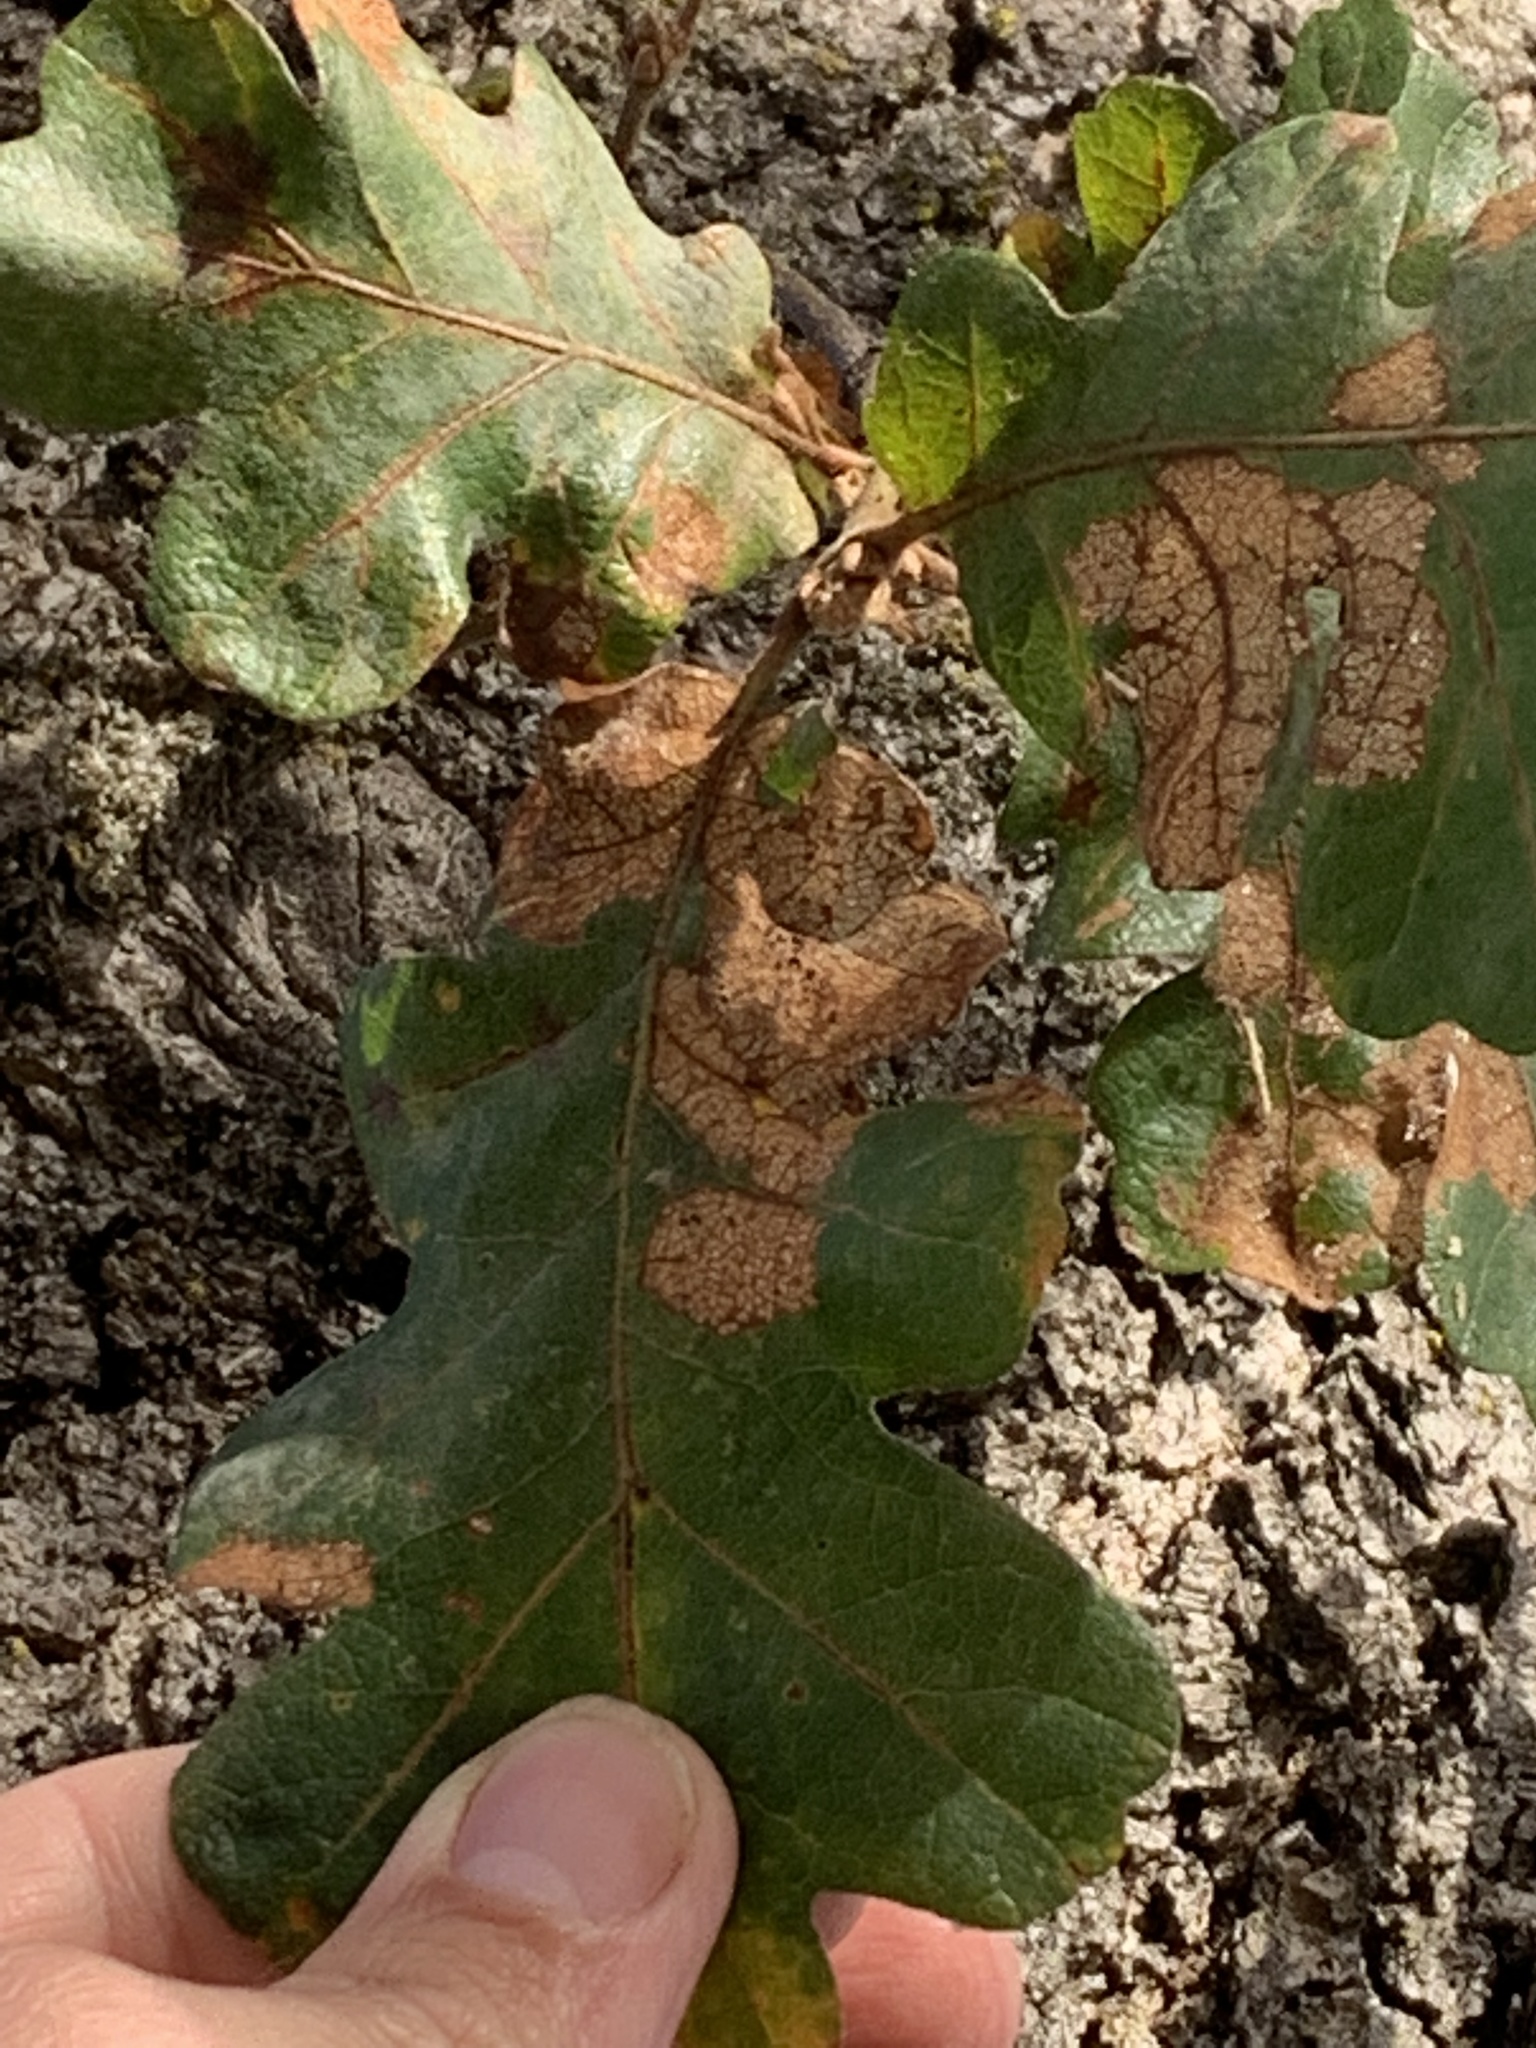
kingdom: Plantae
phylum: Tracheophyta
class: Magnoliopsida
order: Fagales
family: Fagaceae
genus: Quercus
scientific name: Quercus garryana
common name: Garry oak
